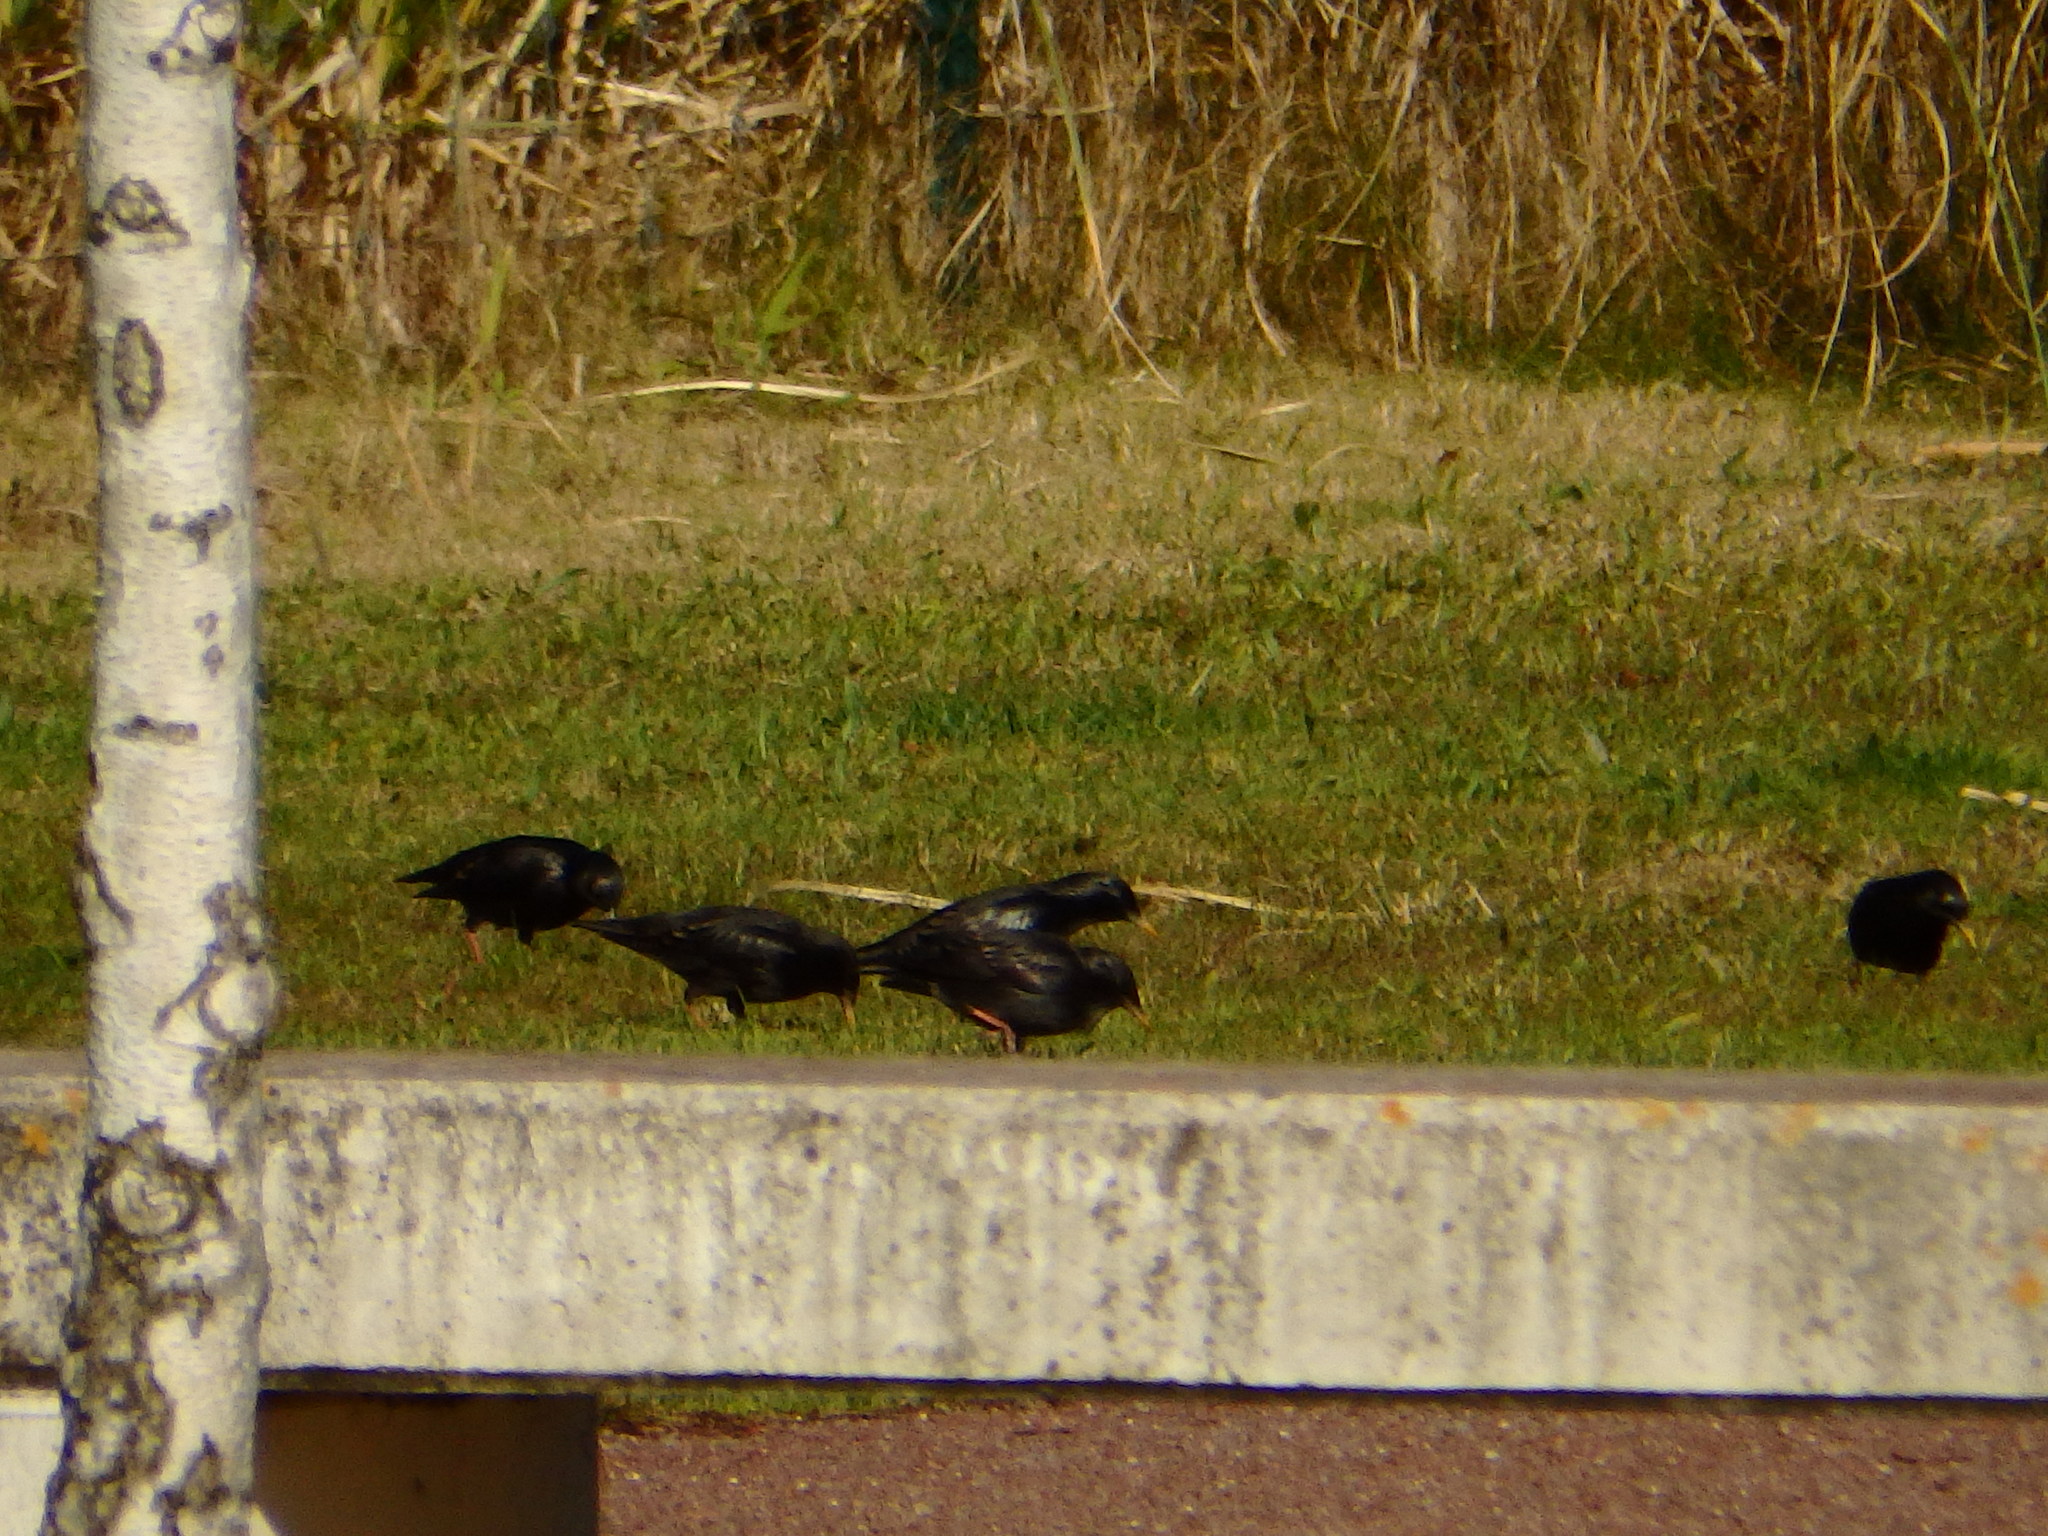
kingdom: Animalia
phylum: Chordata
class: Aves
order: Passeriformes
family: Sturnidae
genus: Sturnus
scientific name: Sturnus unicolor
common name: Spotless starling
